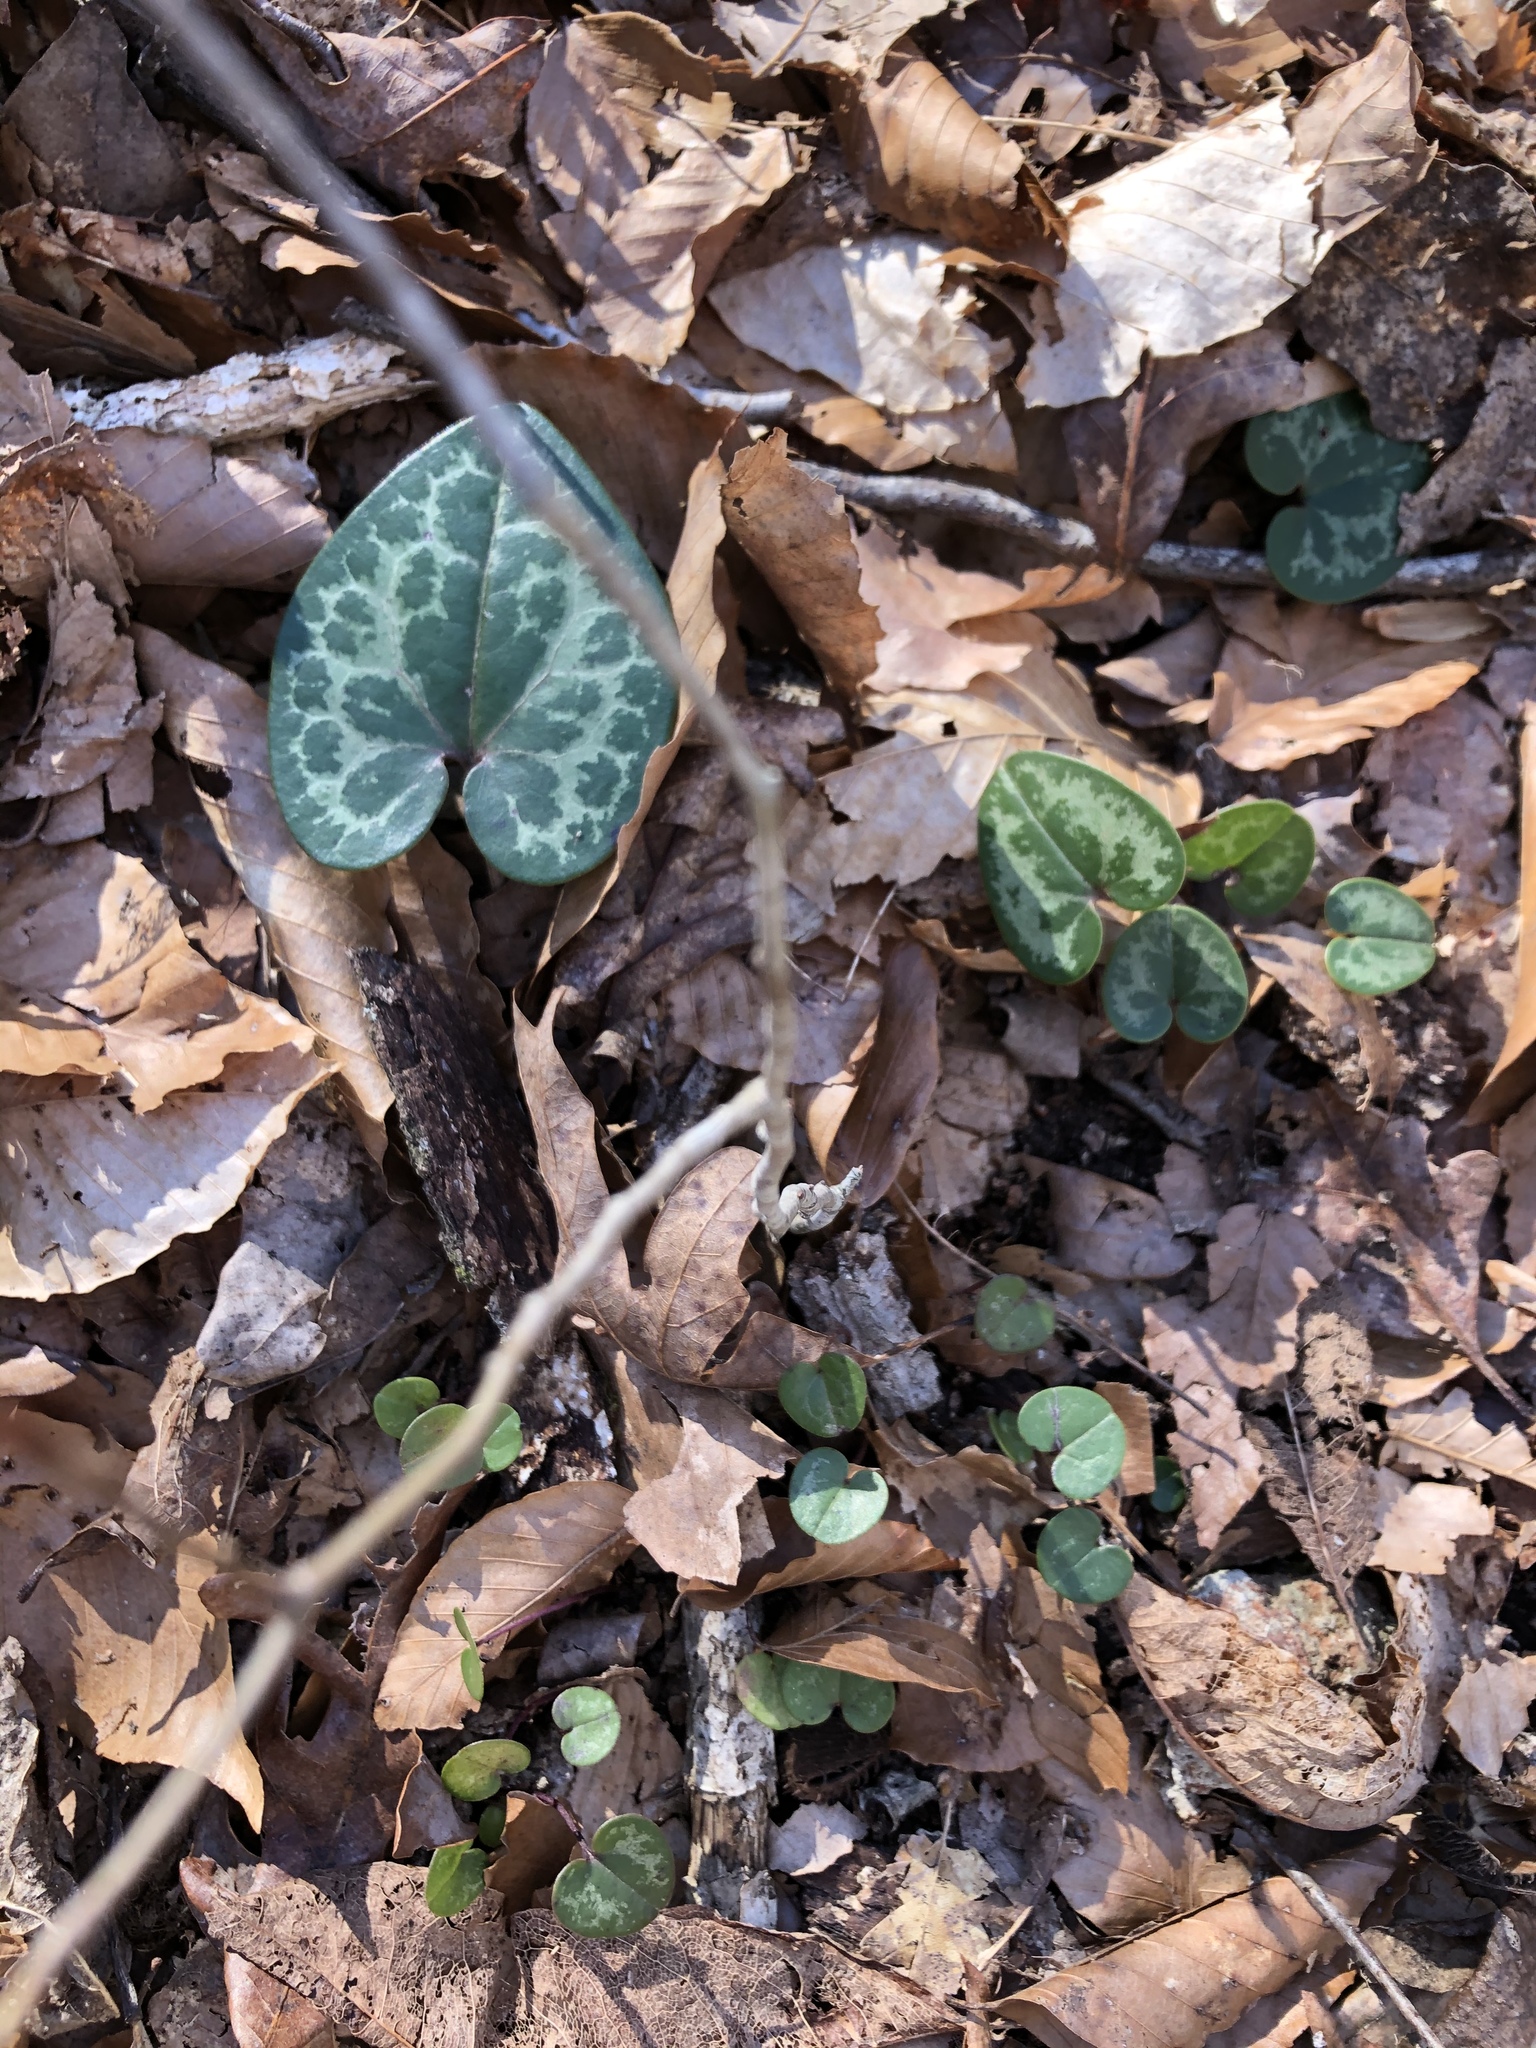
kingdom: Plantae
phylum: Tracheophyta
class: Magnoliopsida
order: Piperales
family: Aristolochiaceae
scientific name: Aristolochiaceae
